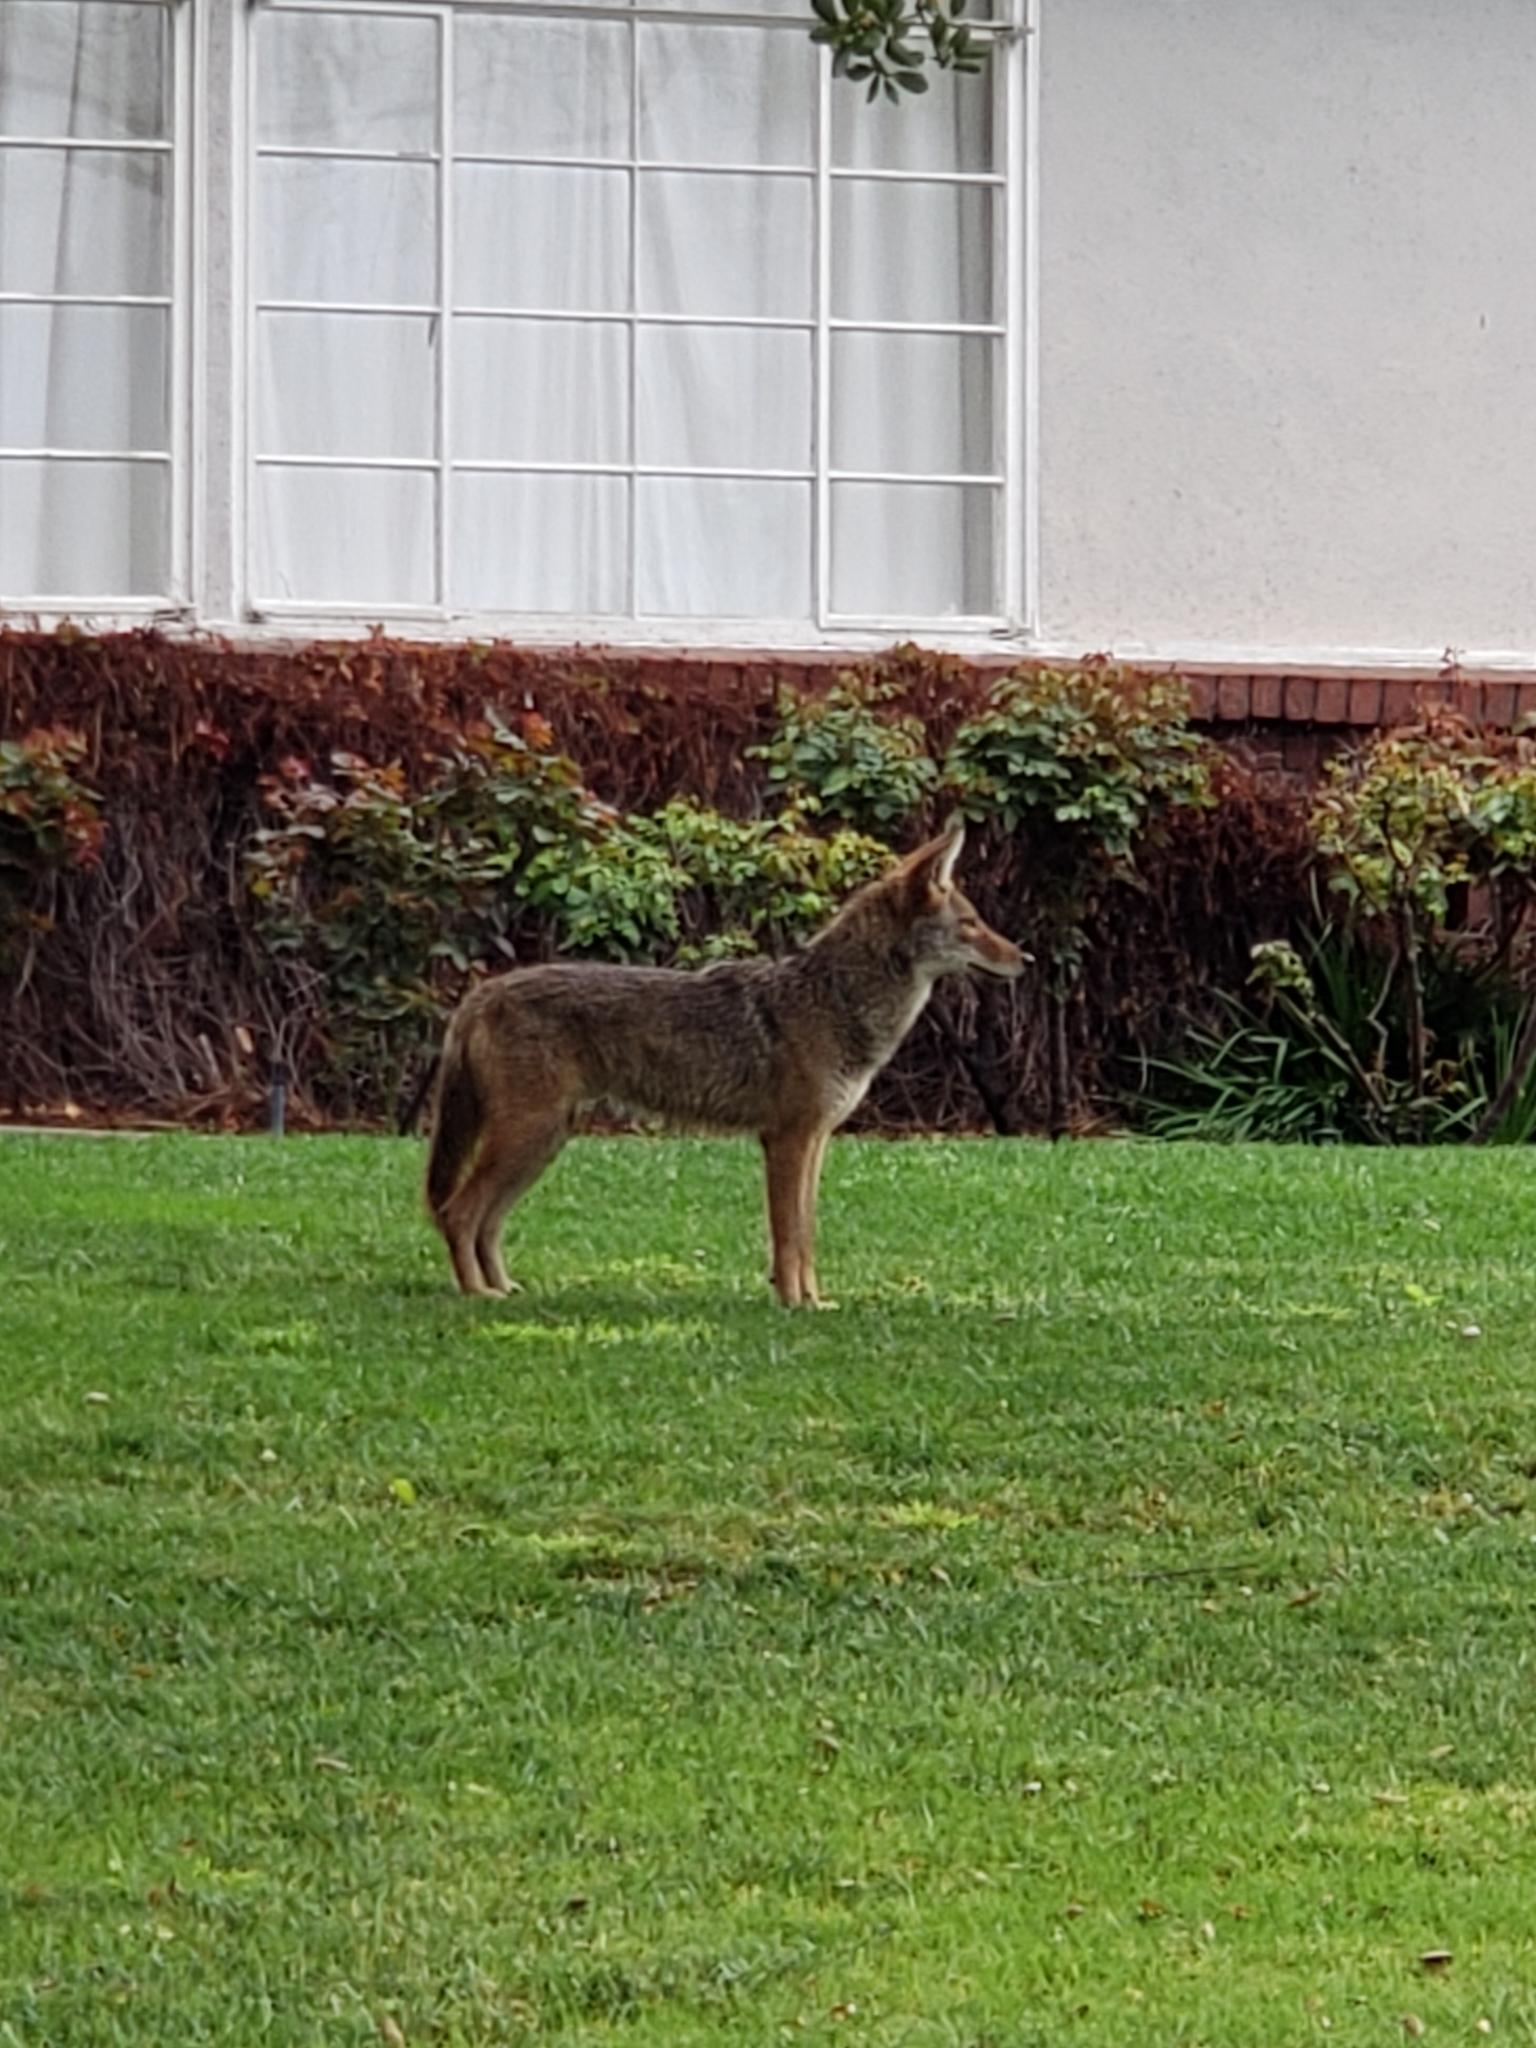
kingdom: Animalia
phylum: Chordata
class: Mammalia
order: Carnivora
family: Canidae
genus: Canis
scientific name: Canis latrans
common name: Coyote
